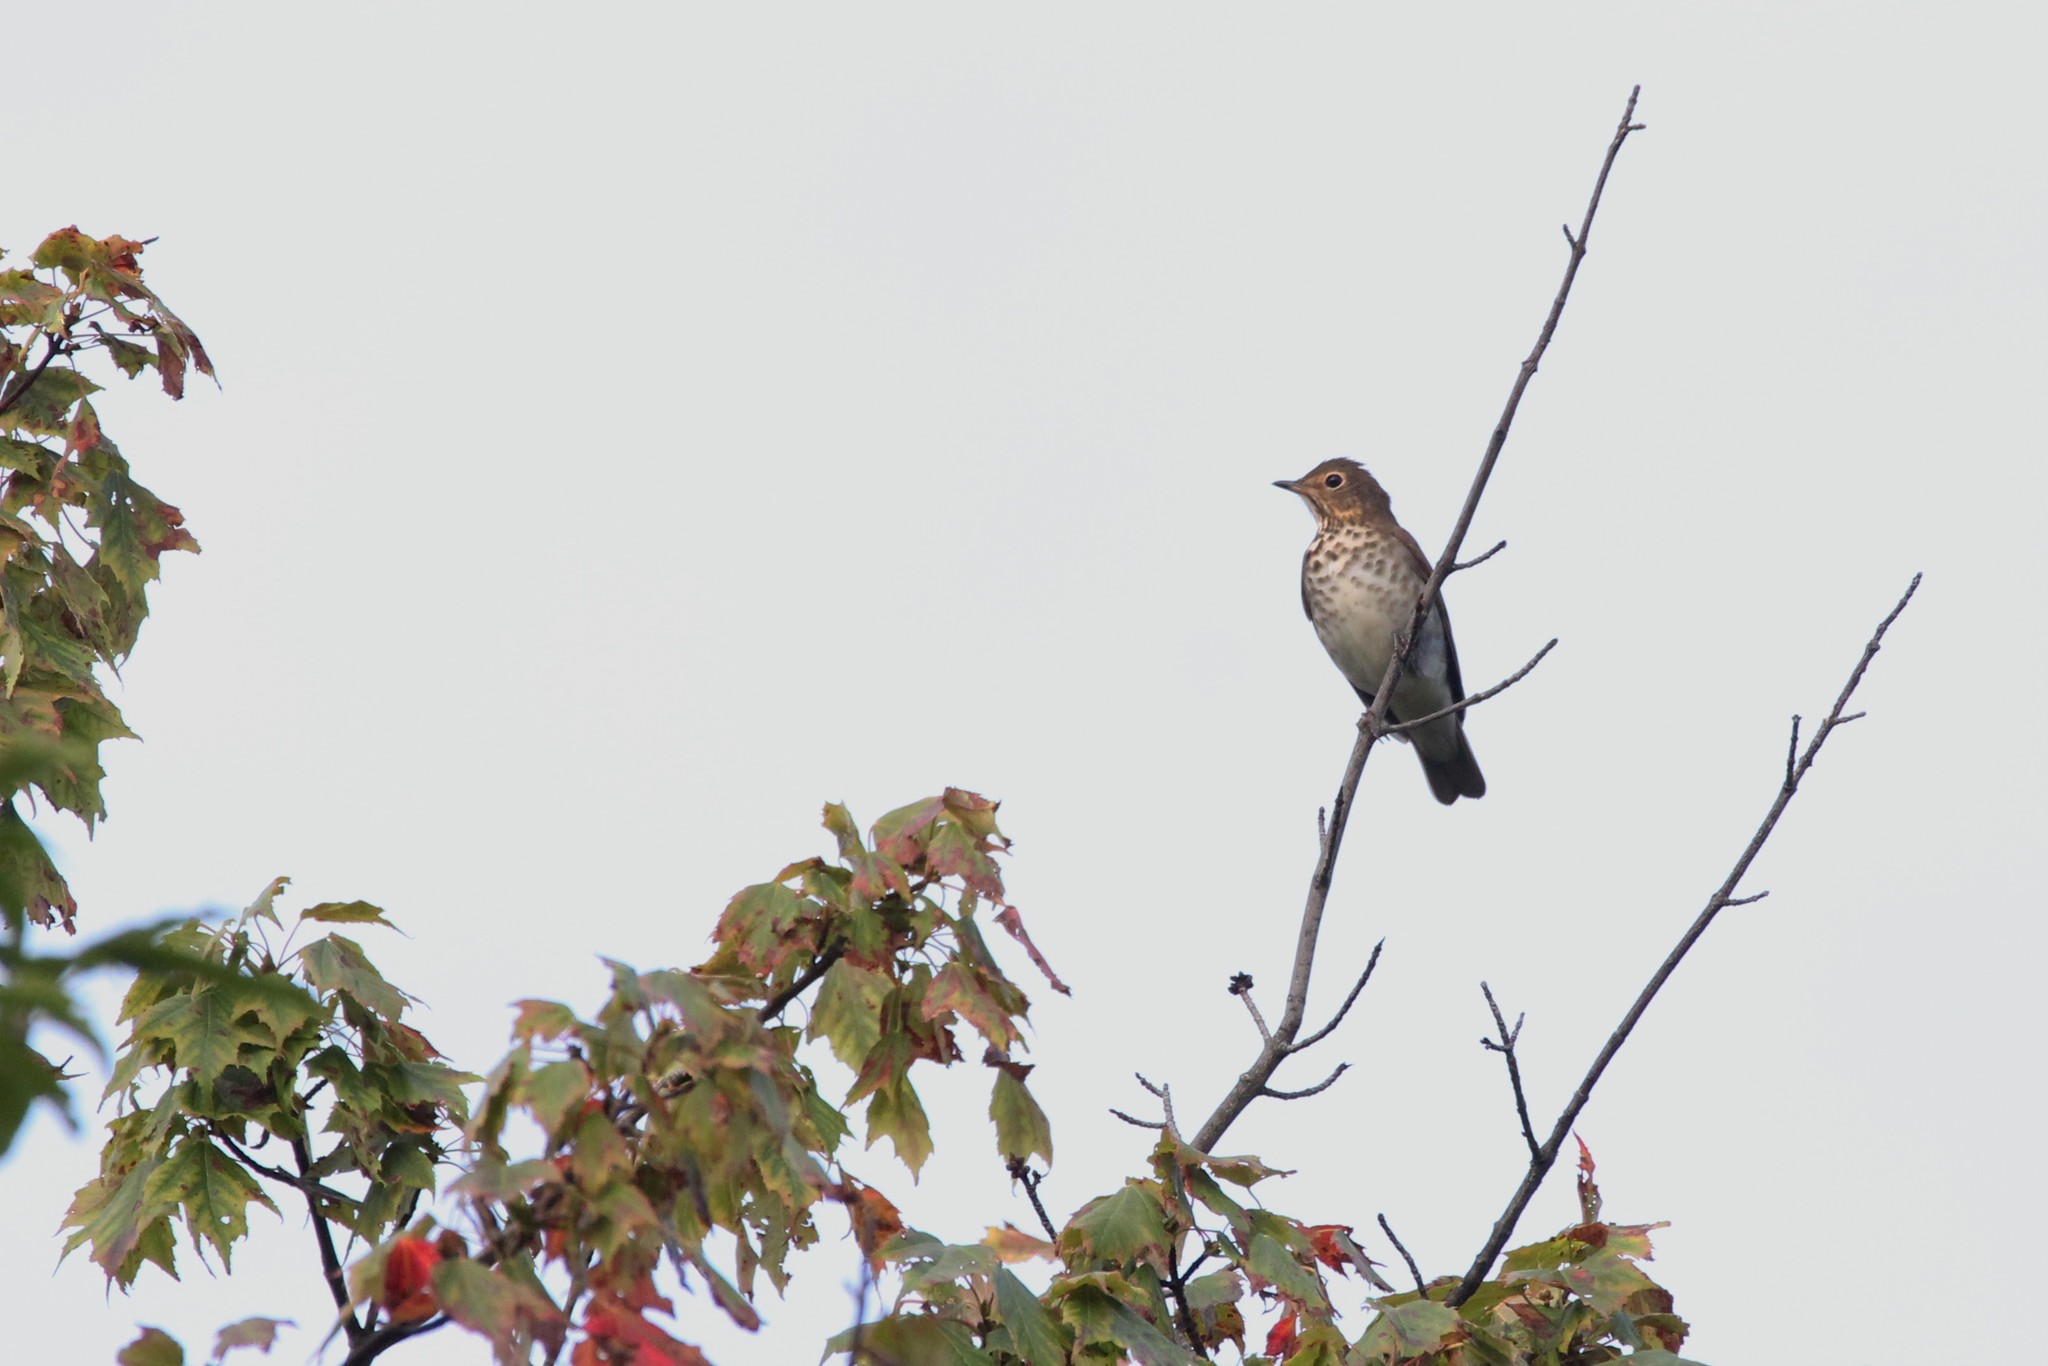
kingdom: Animalia
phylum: Chordata
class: Aves
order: Passeriformes
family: Turdidae
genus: Catharus
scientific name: Catharus ustulatus
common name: Swainson's thrush
